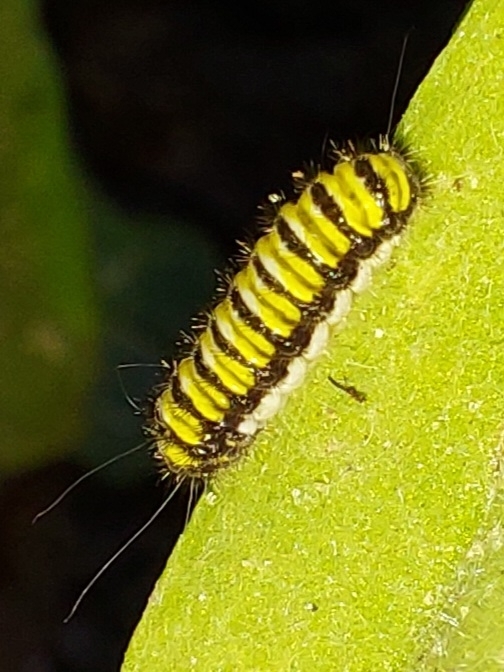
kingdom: Animalia
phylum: Arthropoda
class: Insecta
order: Lepidoptera
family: Zygaenidae
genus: Harrisina
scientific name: Harrisina americana
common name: Grapeleaf skeletonizer moth
